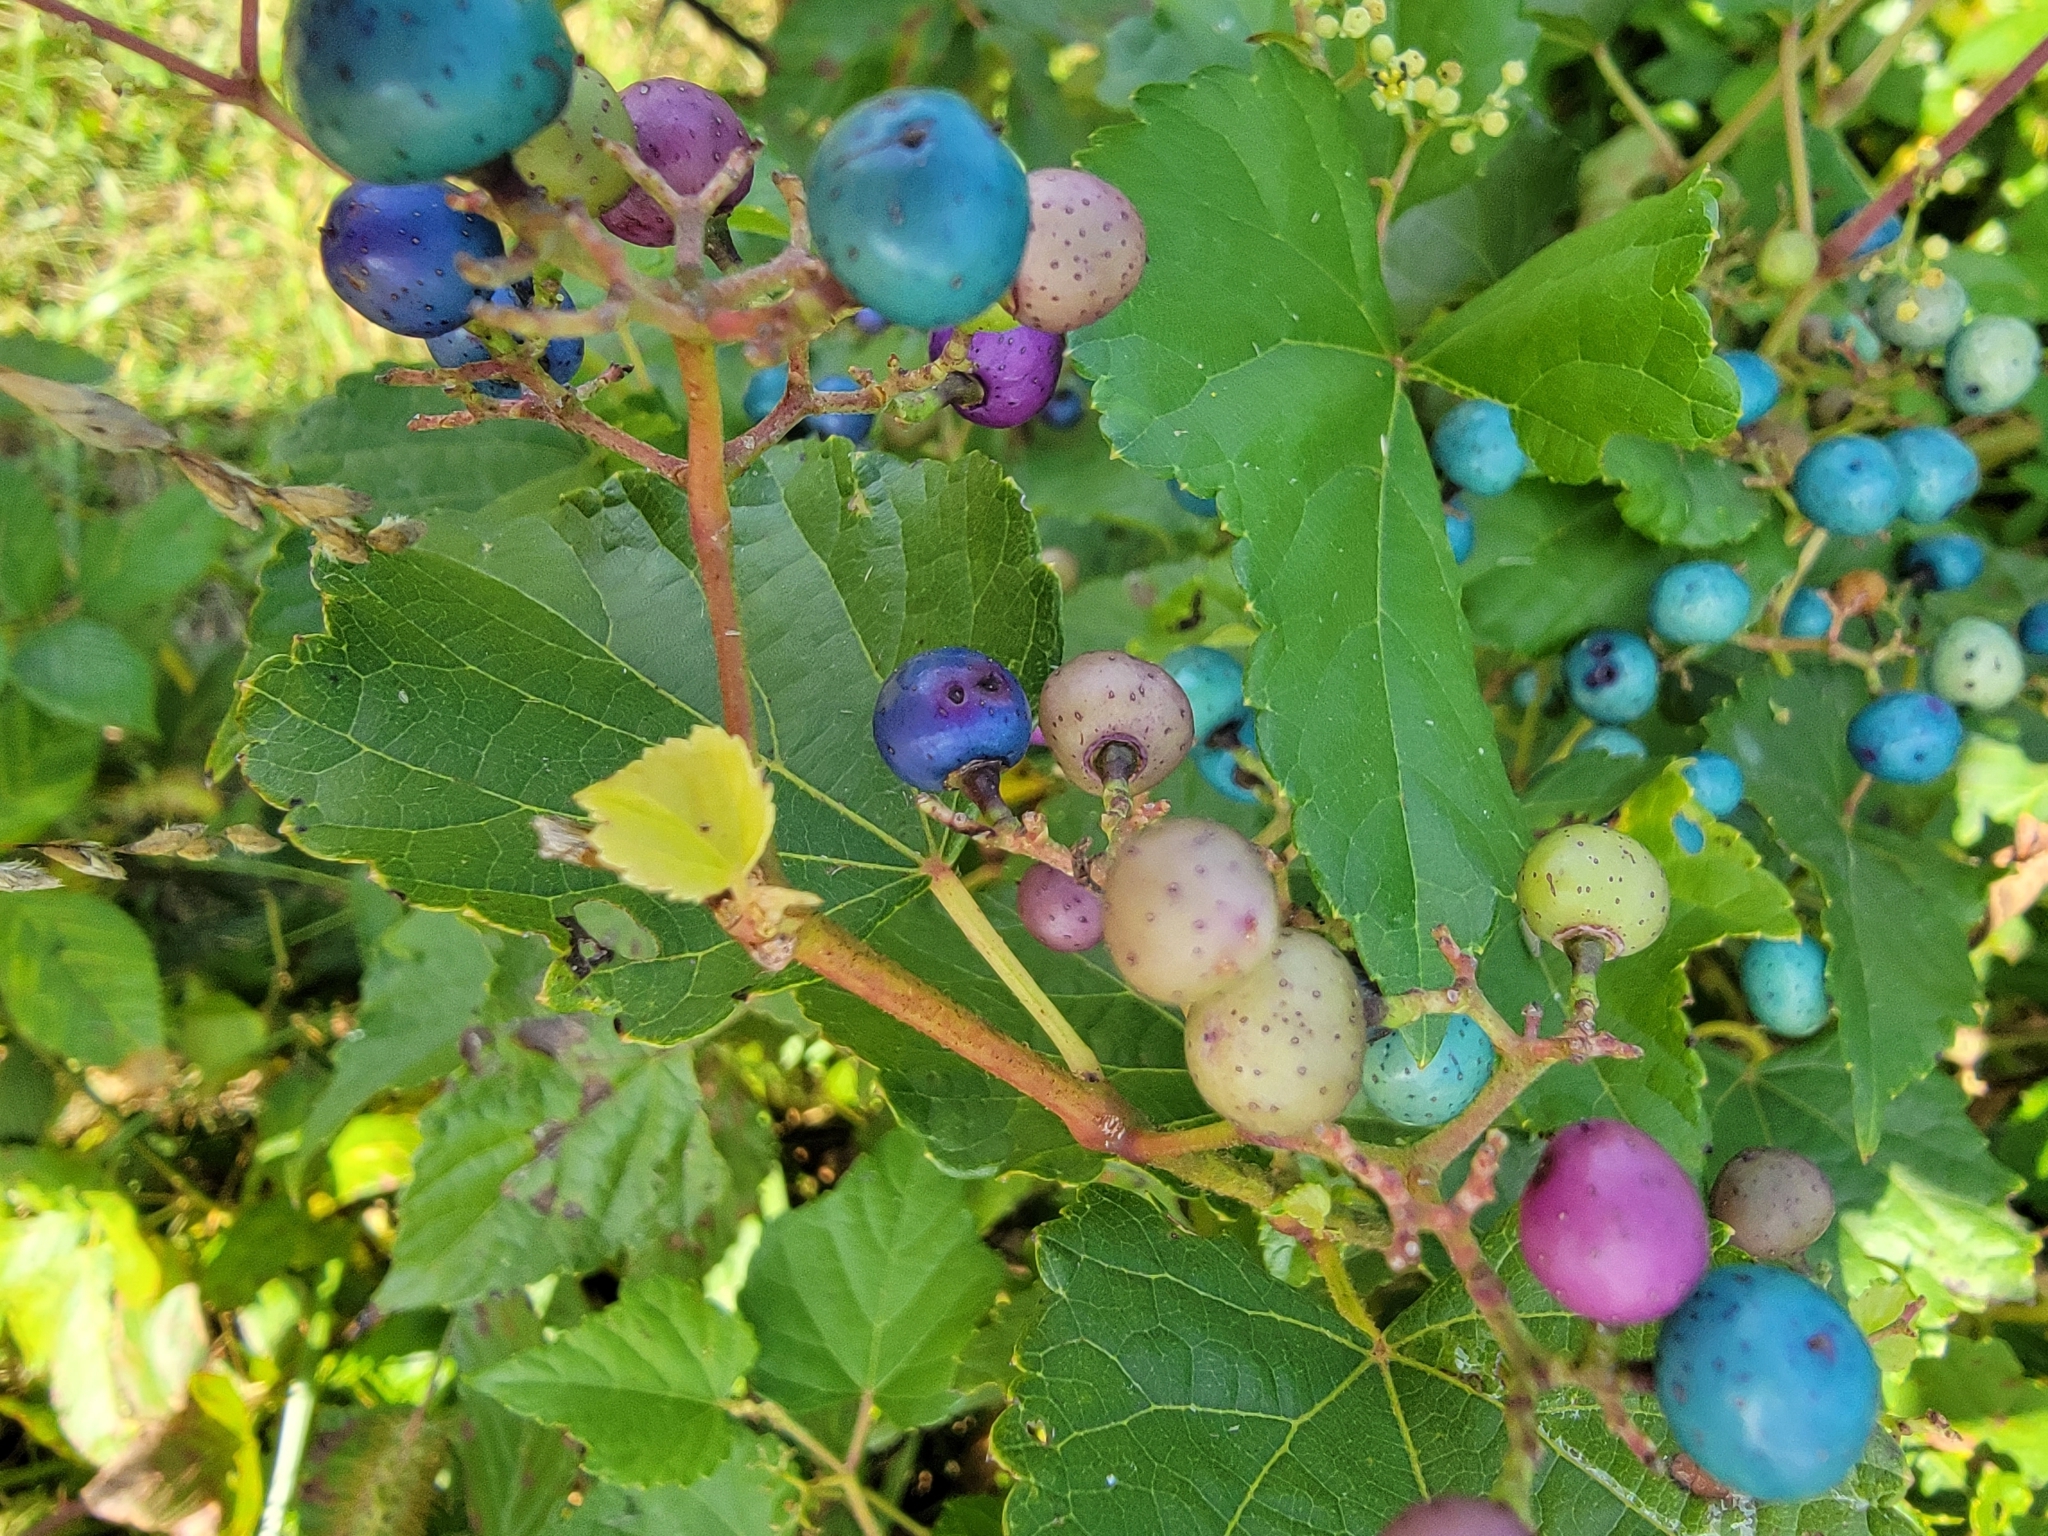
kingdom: Plantae
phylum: Tracheophyta
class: Magnoliopsida
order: Vitales
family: Vitaceae
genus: Ampelopsis
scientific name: Ampelopsis glandulosa
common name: Amur peppervine
